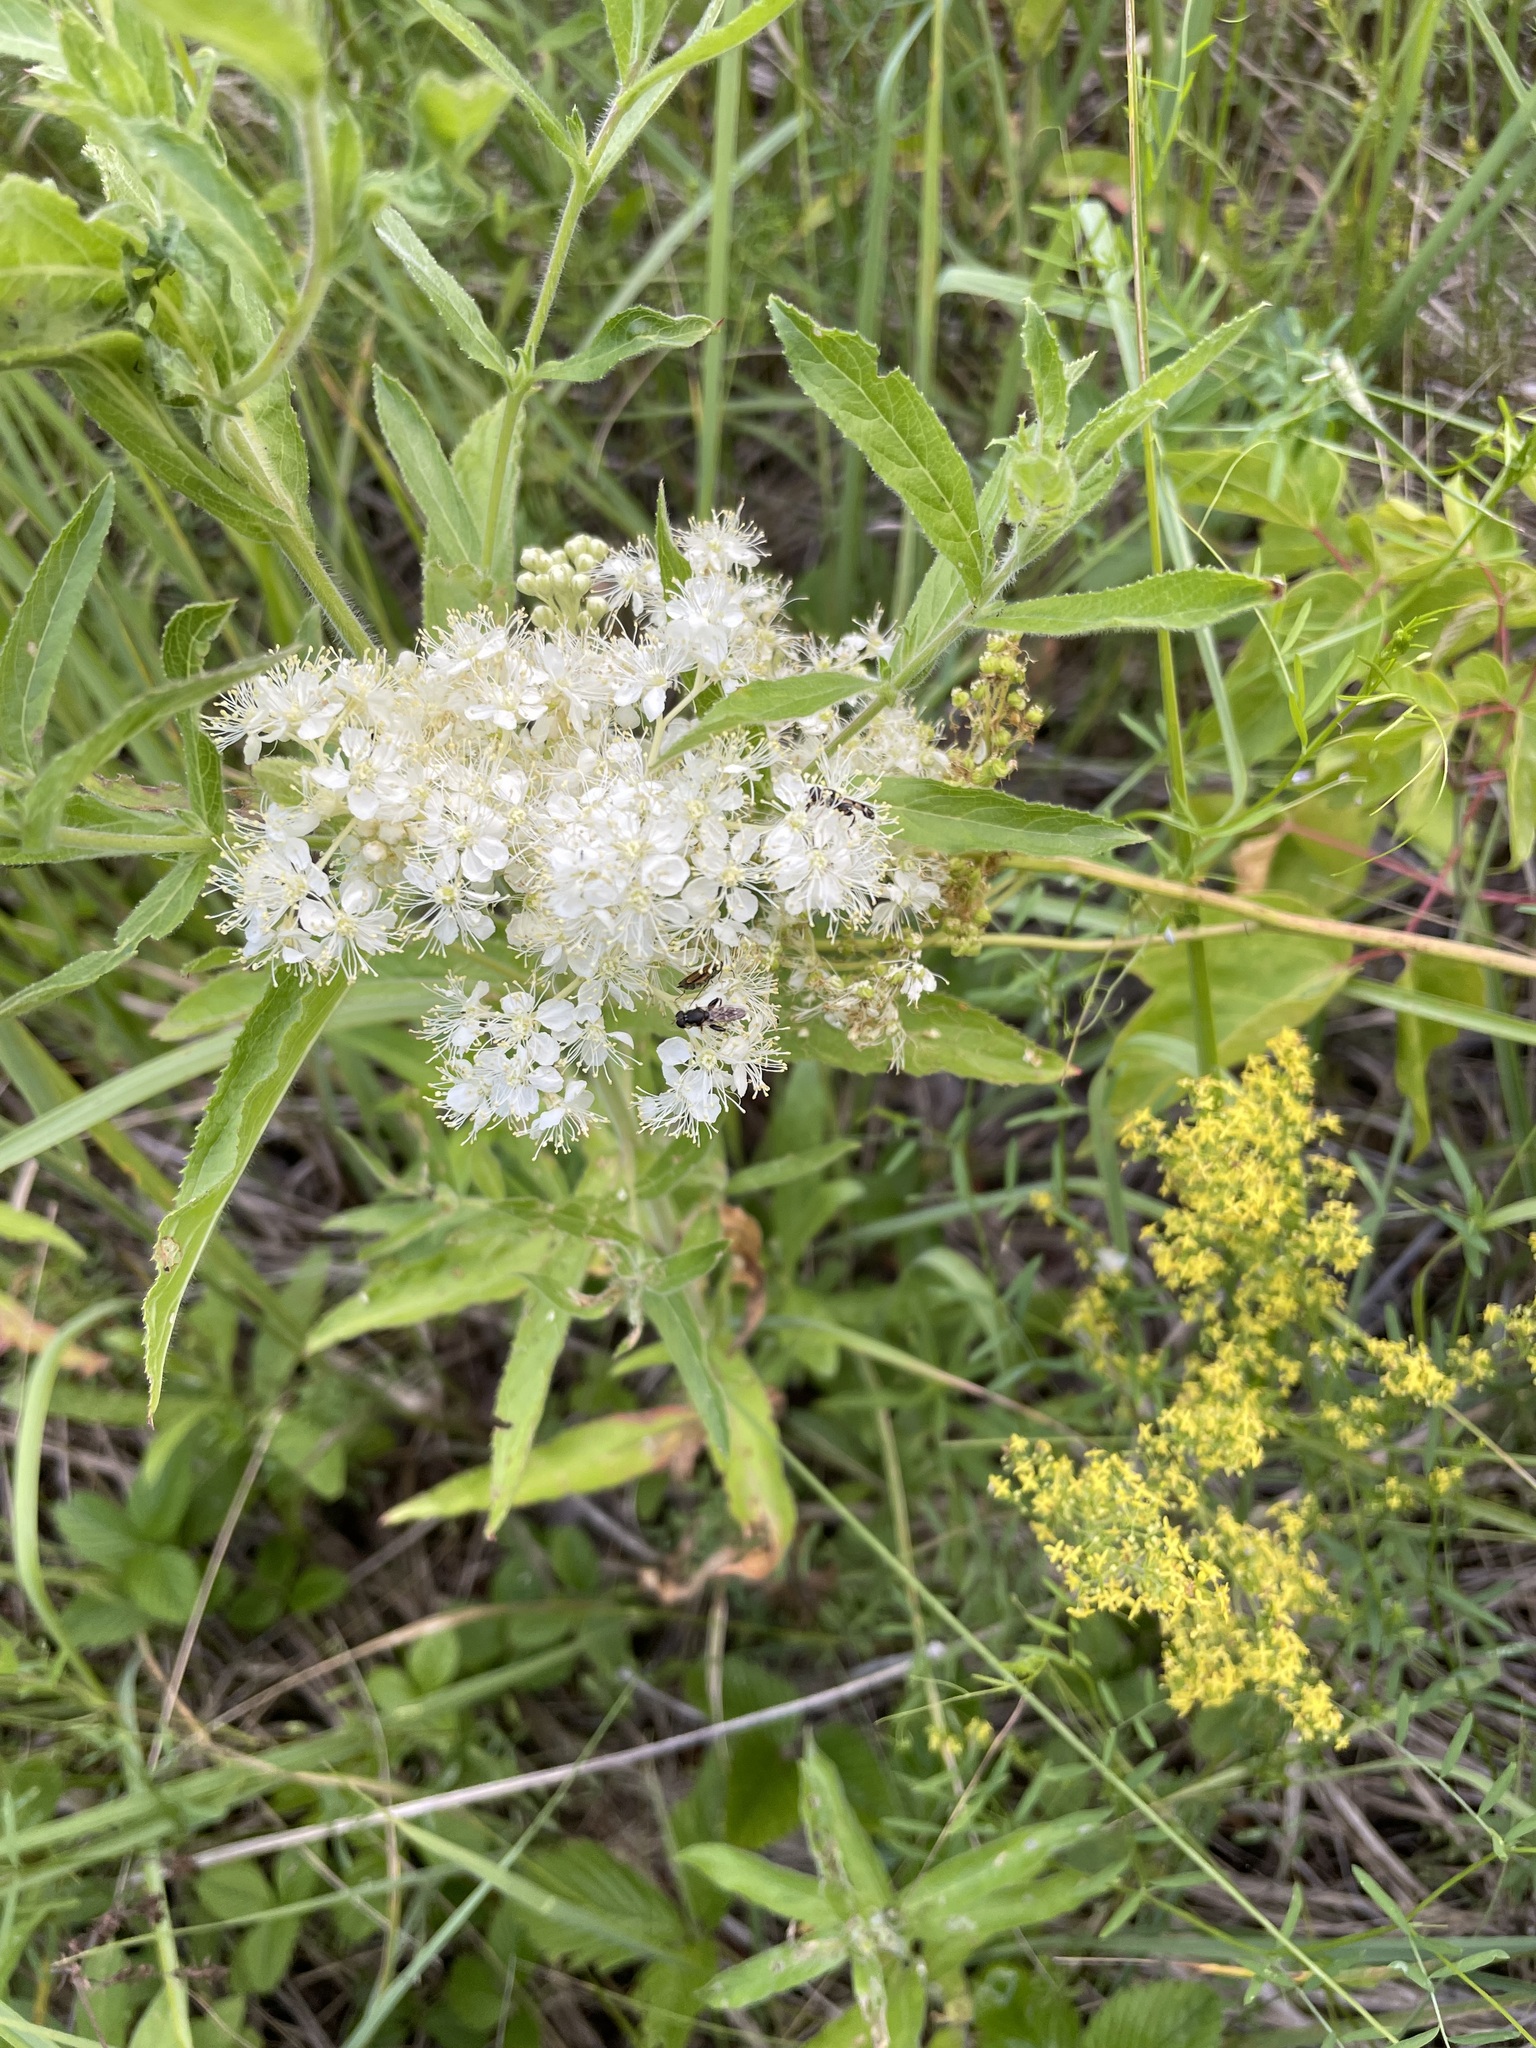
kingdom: Plantae
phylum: Tracheophyta
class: Magnoliopsida
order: Rosales
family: Rosaceae
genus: Filipendula
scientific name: Filipendula ulmaria
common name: Meadowsweet
